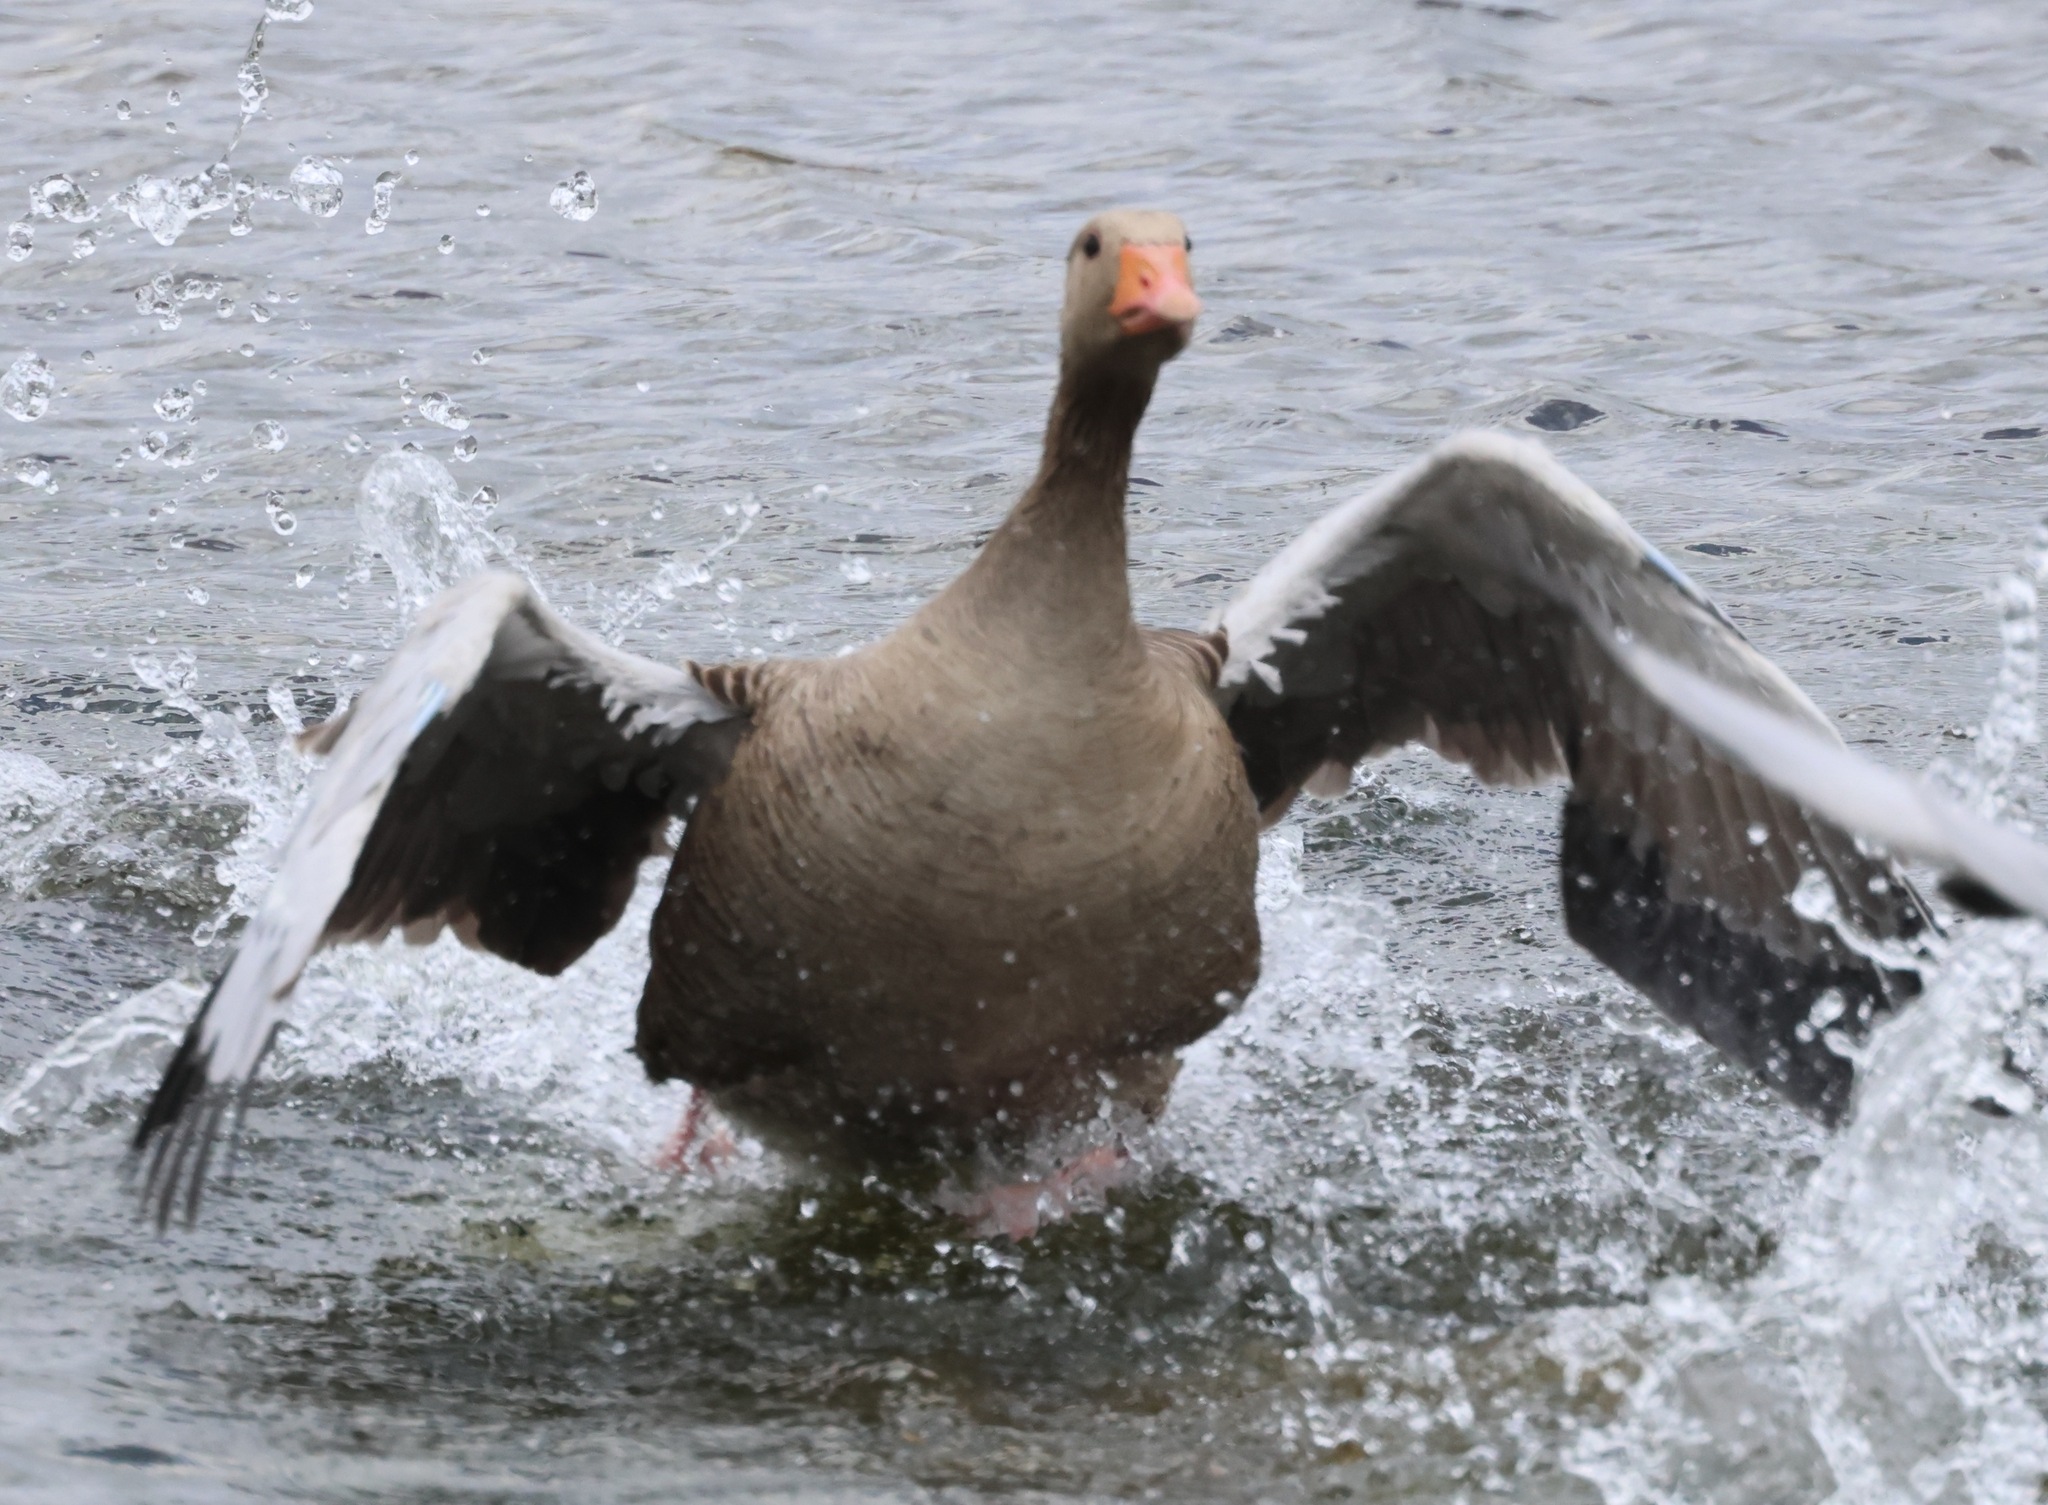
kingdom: Animalia
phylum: Chordata
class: Aves
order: Anseriformes
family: Anatidae
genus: Anser
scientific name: Anser anser
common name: Greylag goose
